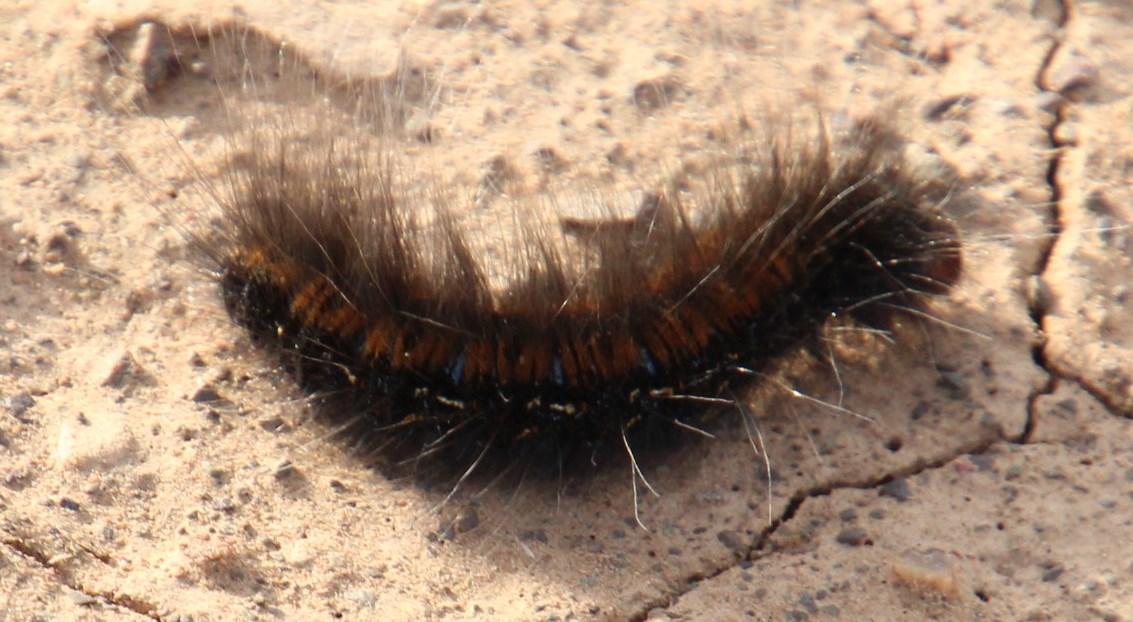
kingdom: Animalia
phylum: Arthropoda
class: Insecta
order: Lepidoptera
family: Lasiocampidae
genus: Mesocelis
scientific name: Mesocelis monticola
